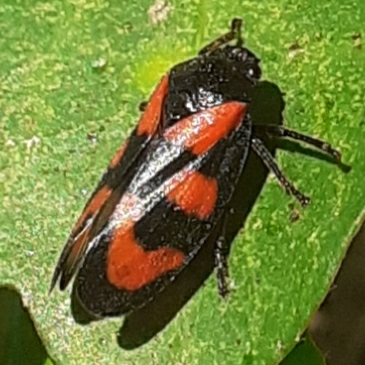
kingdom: Animalia
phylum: Arthropoda
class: Insecta
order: Hemiptera
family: Cercopidae
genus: Cercopis
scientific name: Cercopis vulnerata
